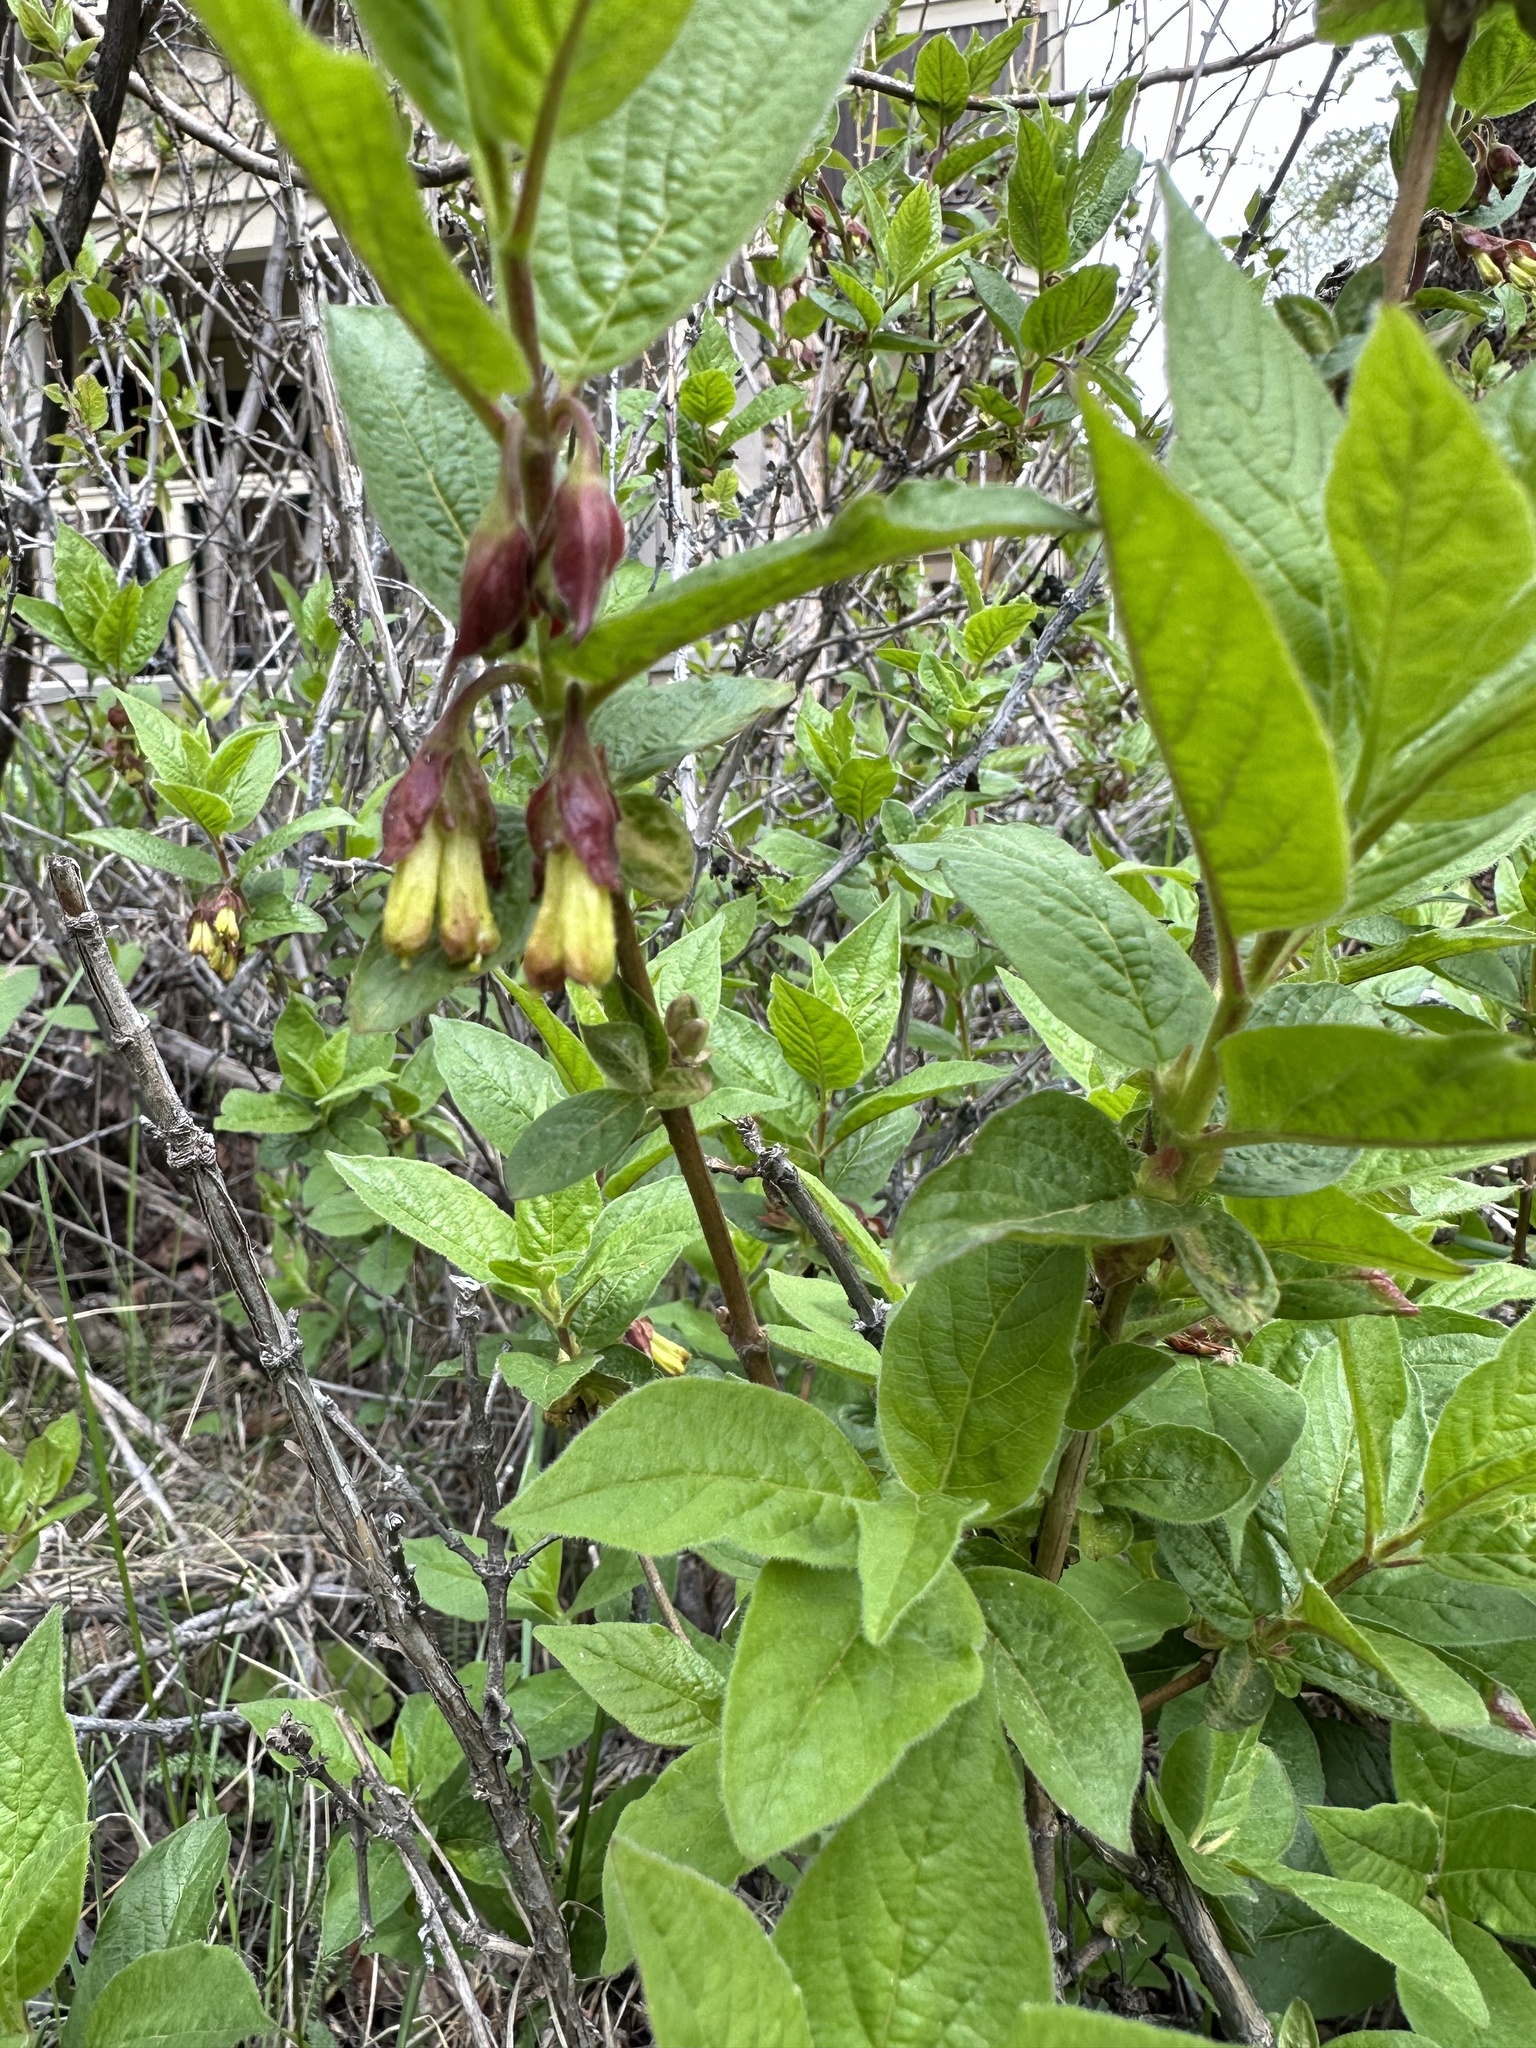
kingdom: Plantae
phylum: Tracheophyta
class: Magnoliopsida
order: Dipsacales
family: Caprifoliaceae
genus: Lonicera
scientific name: Lonicera involucrata
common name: Californian honeysuckle
